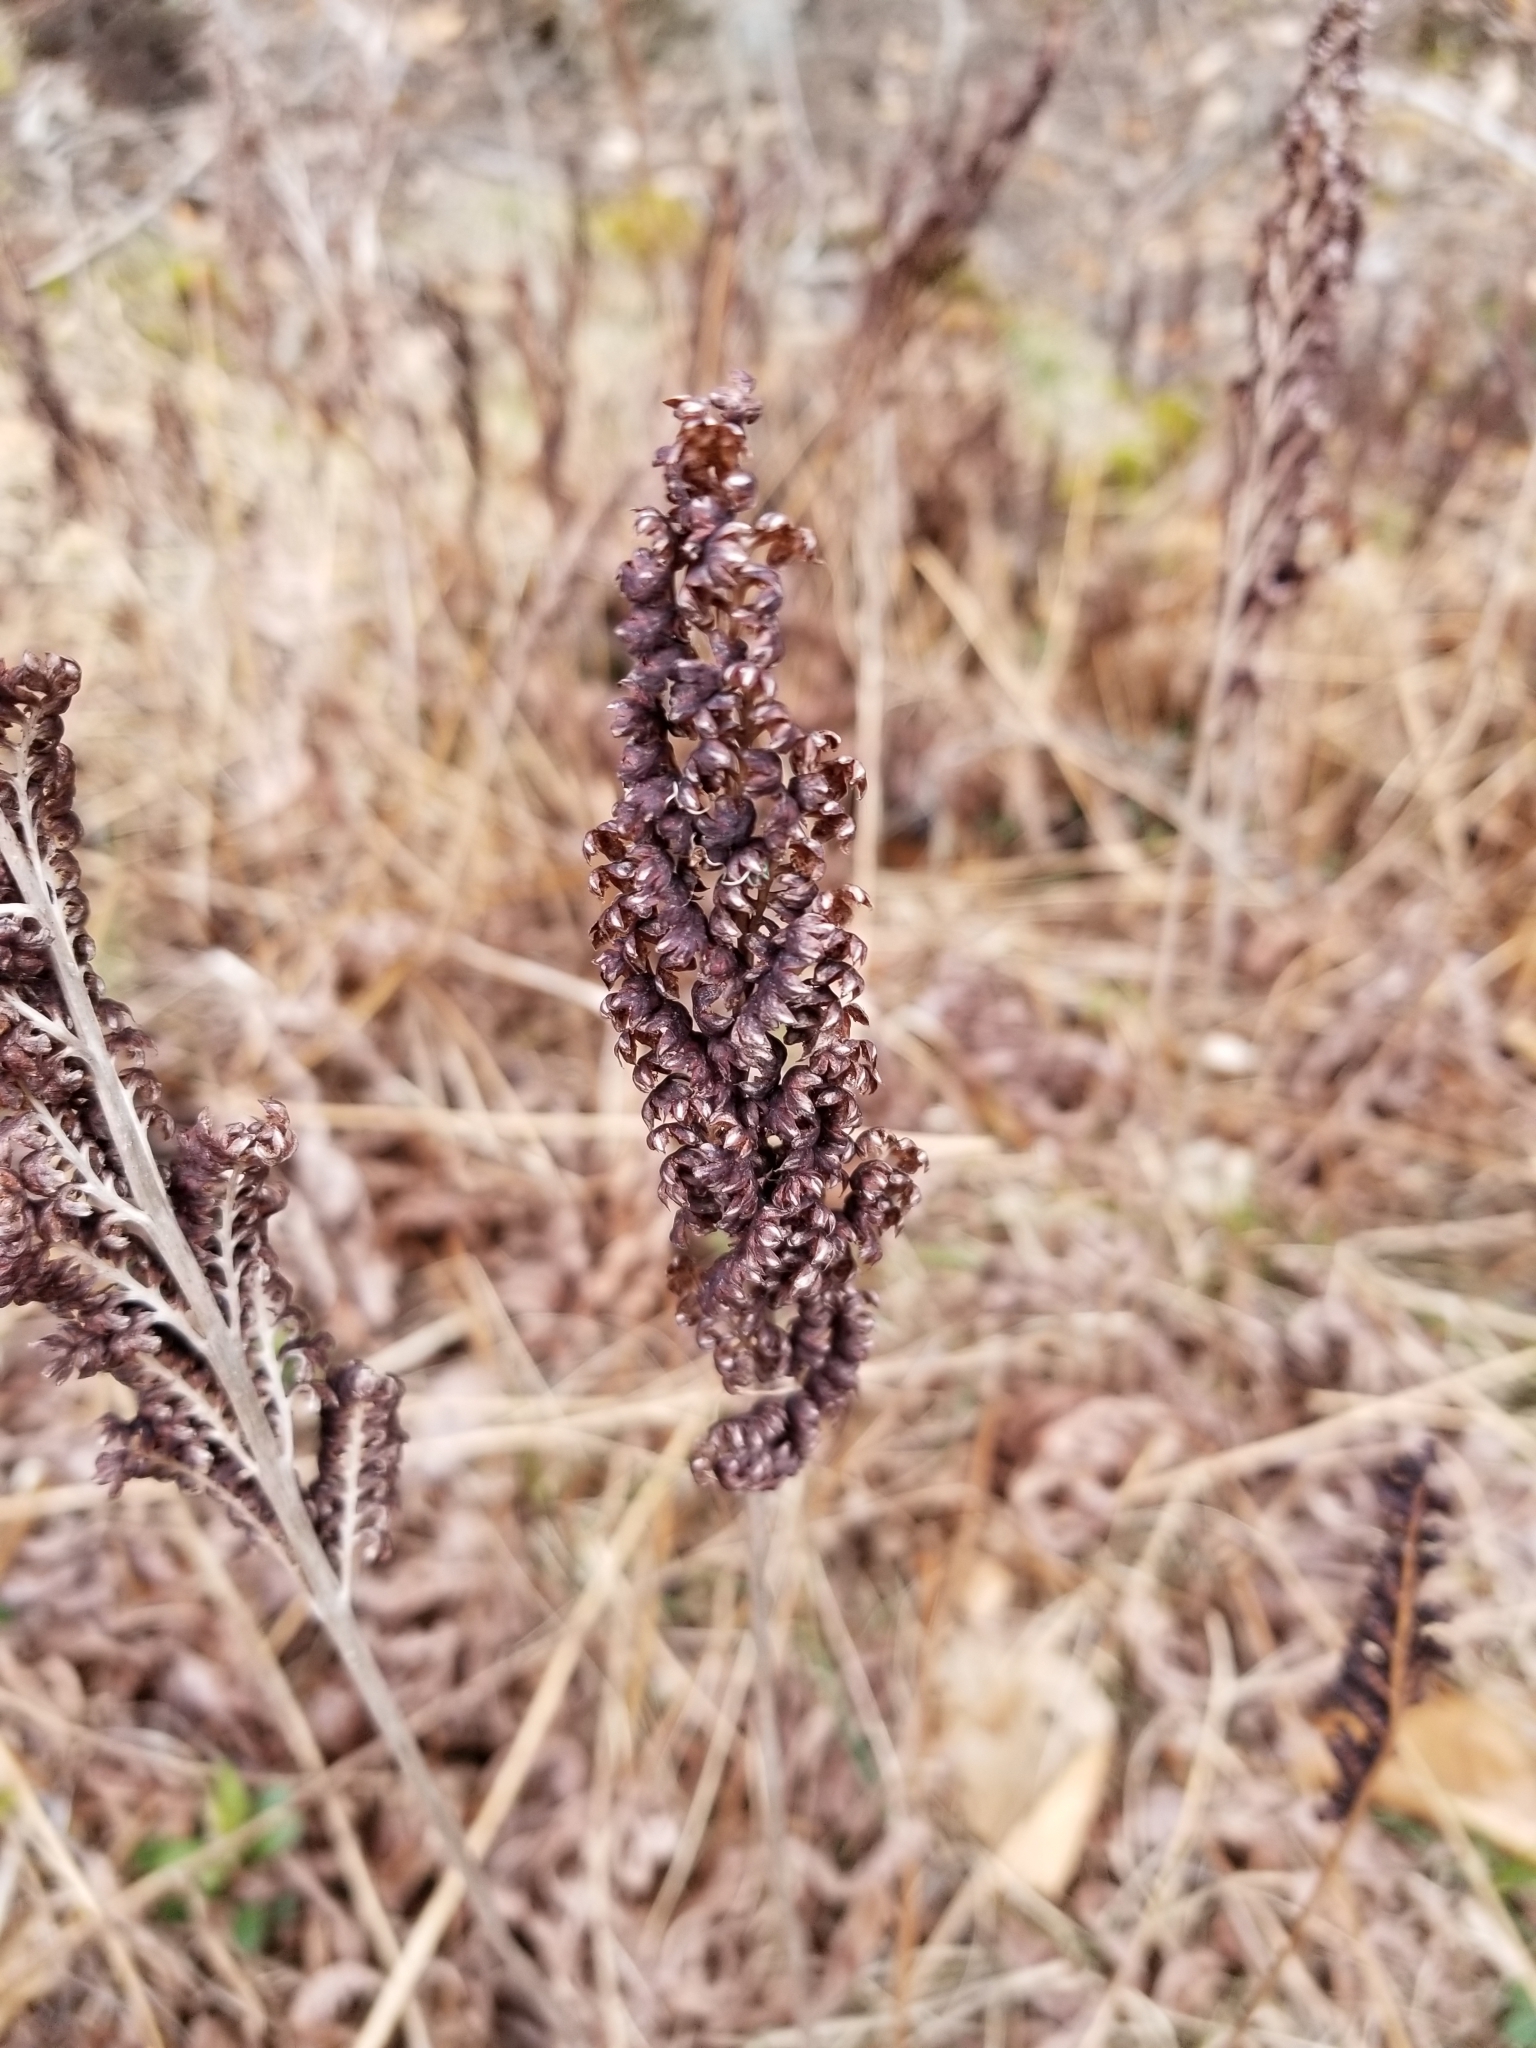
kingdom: Plantae
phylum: Tracheophyta
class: Polypodiopsida
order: Polypodiales
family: Onocleaceae
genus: Onoclea
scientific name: Onoclea sensibilis
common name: Sensitive fern
